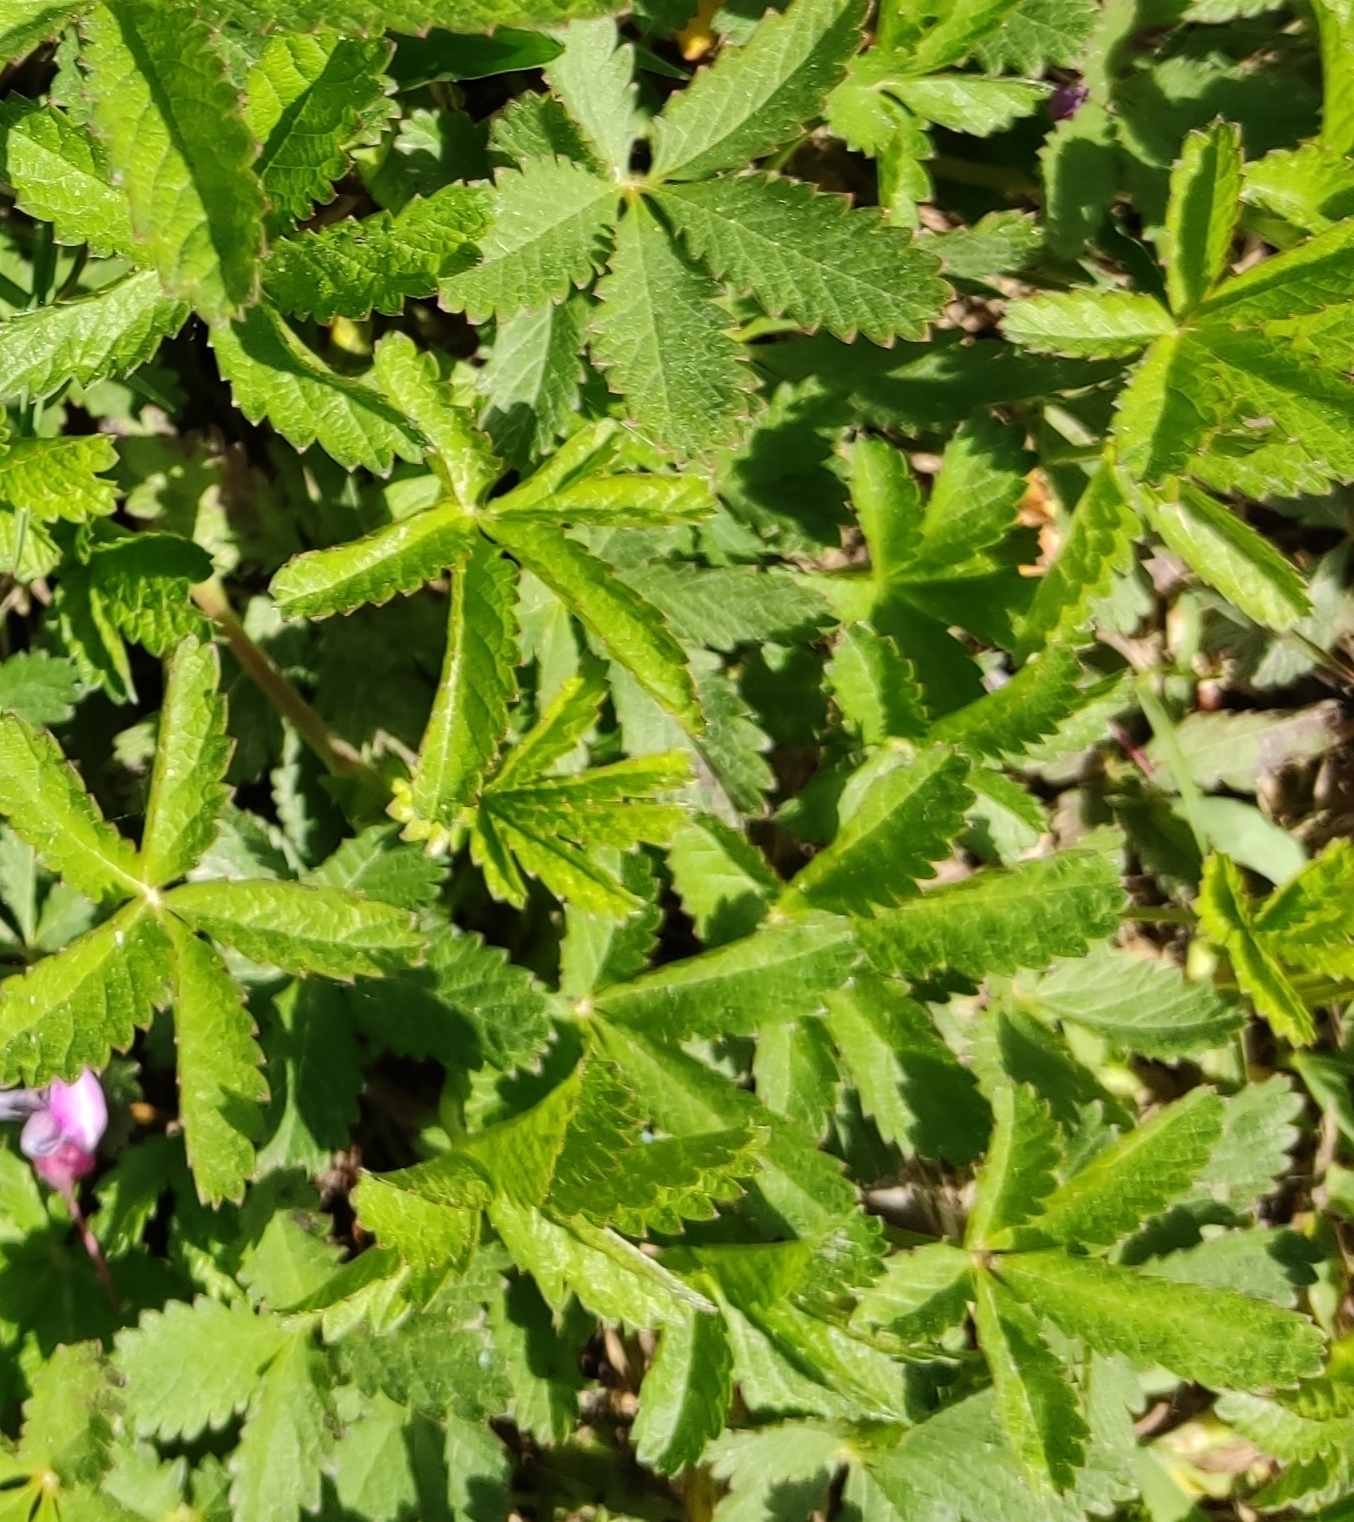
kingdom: Plantae
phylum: Tracheophyta
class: Magnoliopsida
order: Rosales
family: Rosaceae
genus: Potentilla
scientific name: Potentilla reptans
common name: Creeping cinquefoil
